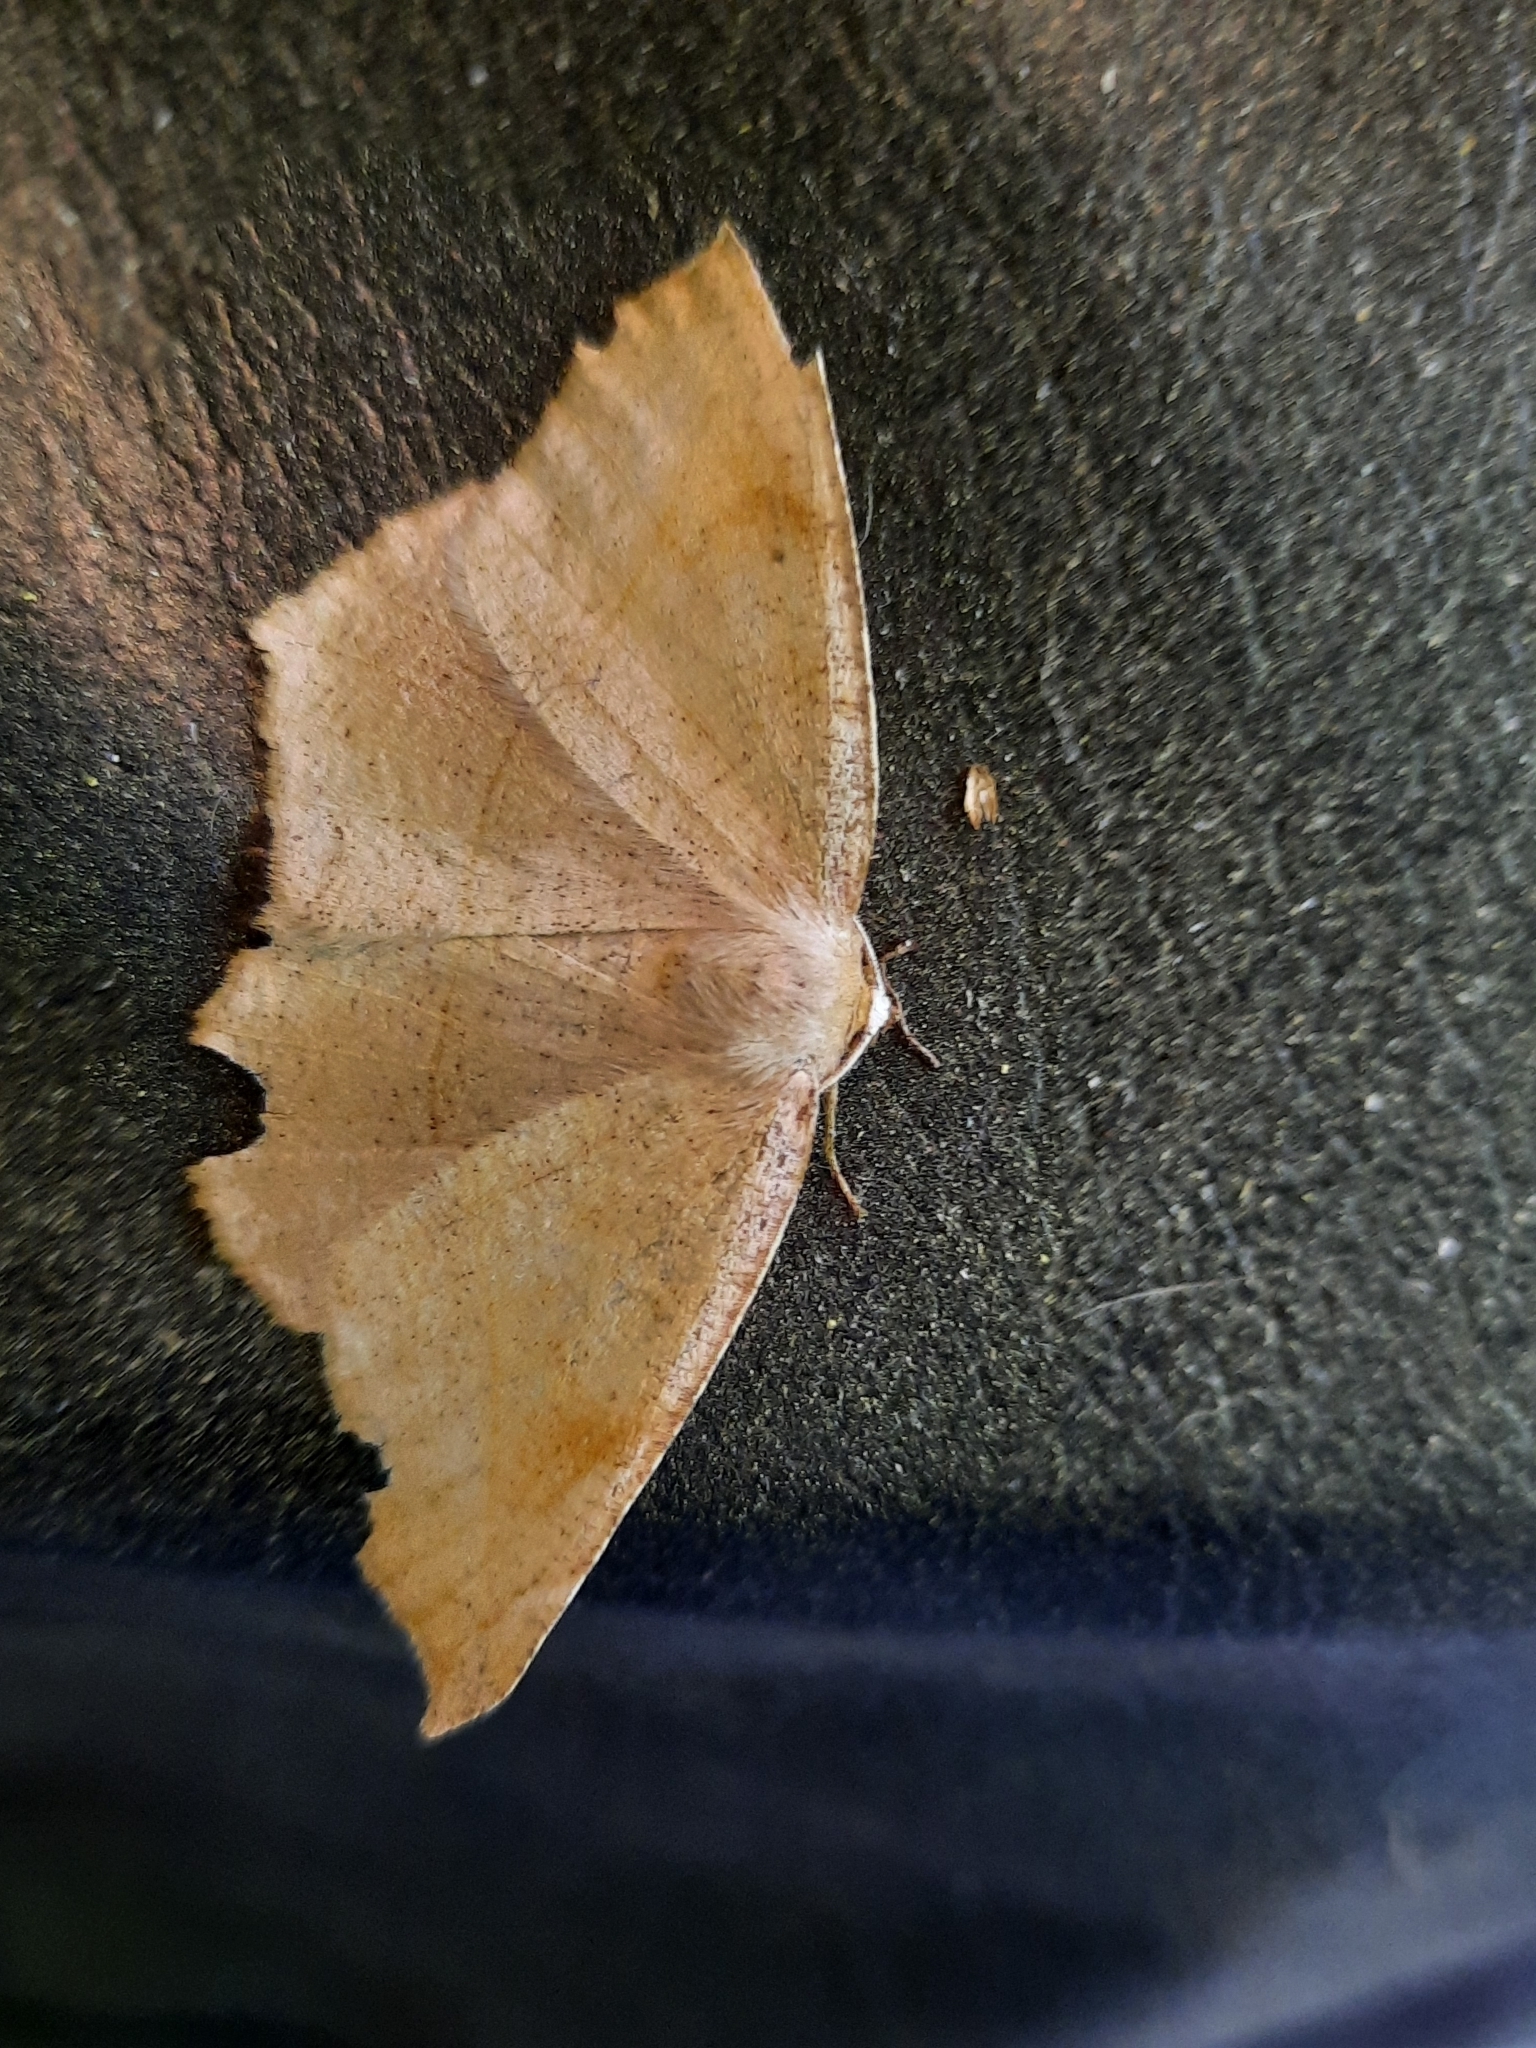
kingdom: Animalia
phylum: Arthropoda
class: Insecta
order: Lepidoptera
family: Geometridae
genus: Eutrapela
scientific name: Eutrapela clemataria
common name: Curved-toothed geometer
